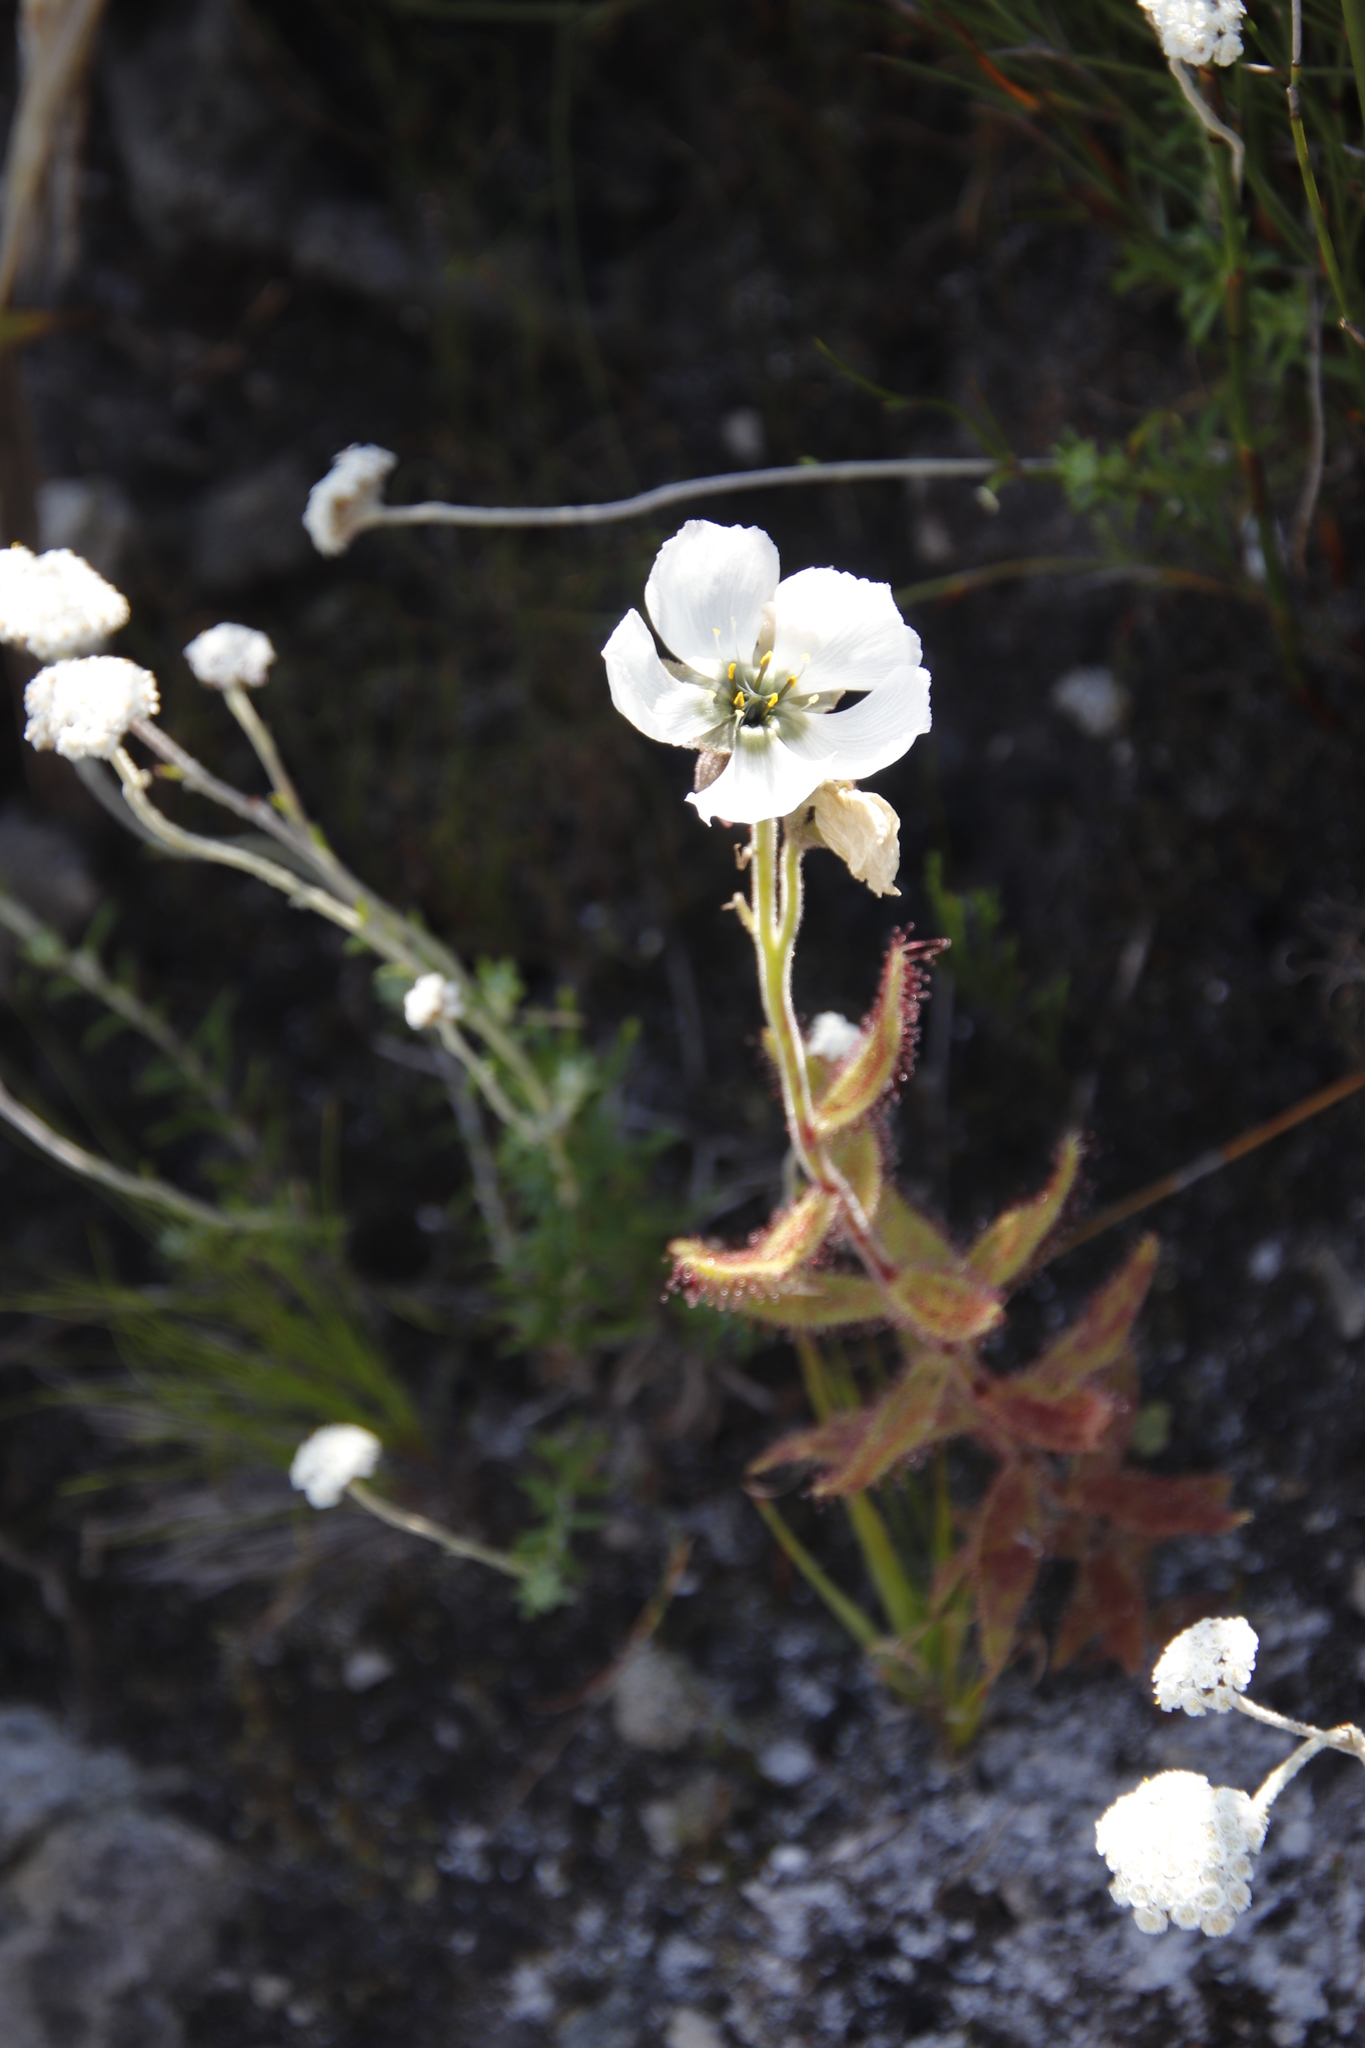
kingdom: Plantae
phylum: Tracheophyta
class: Magnoliopsida
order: Caryophyllales
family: Droseraceae
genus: Drosera
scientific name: Drosera cistiflora
